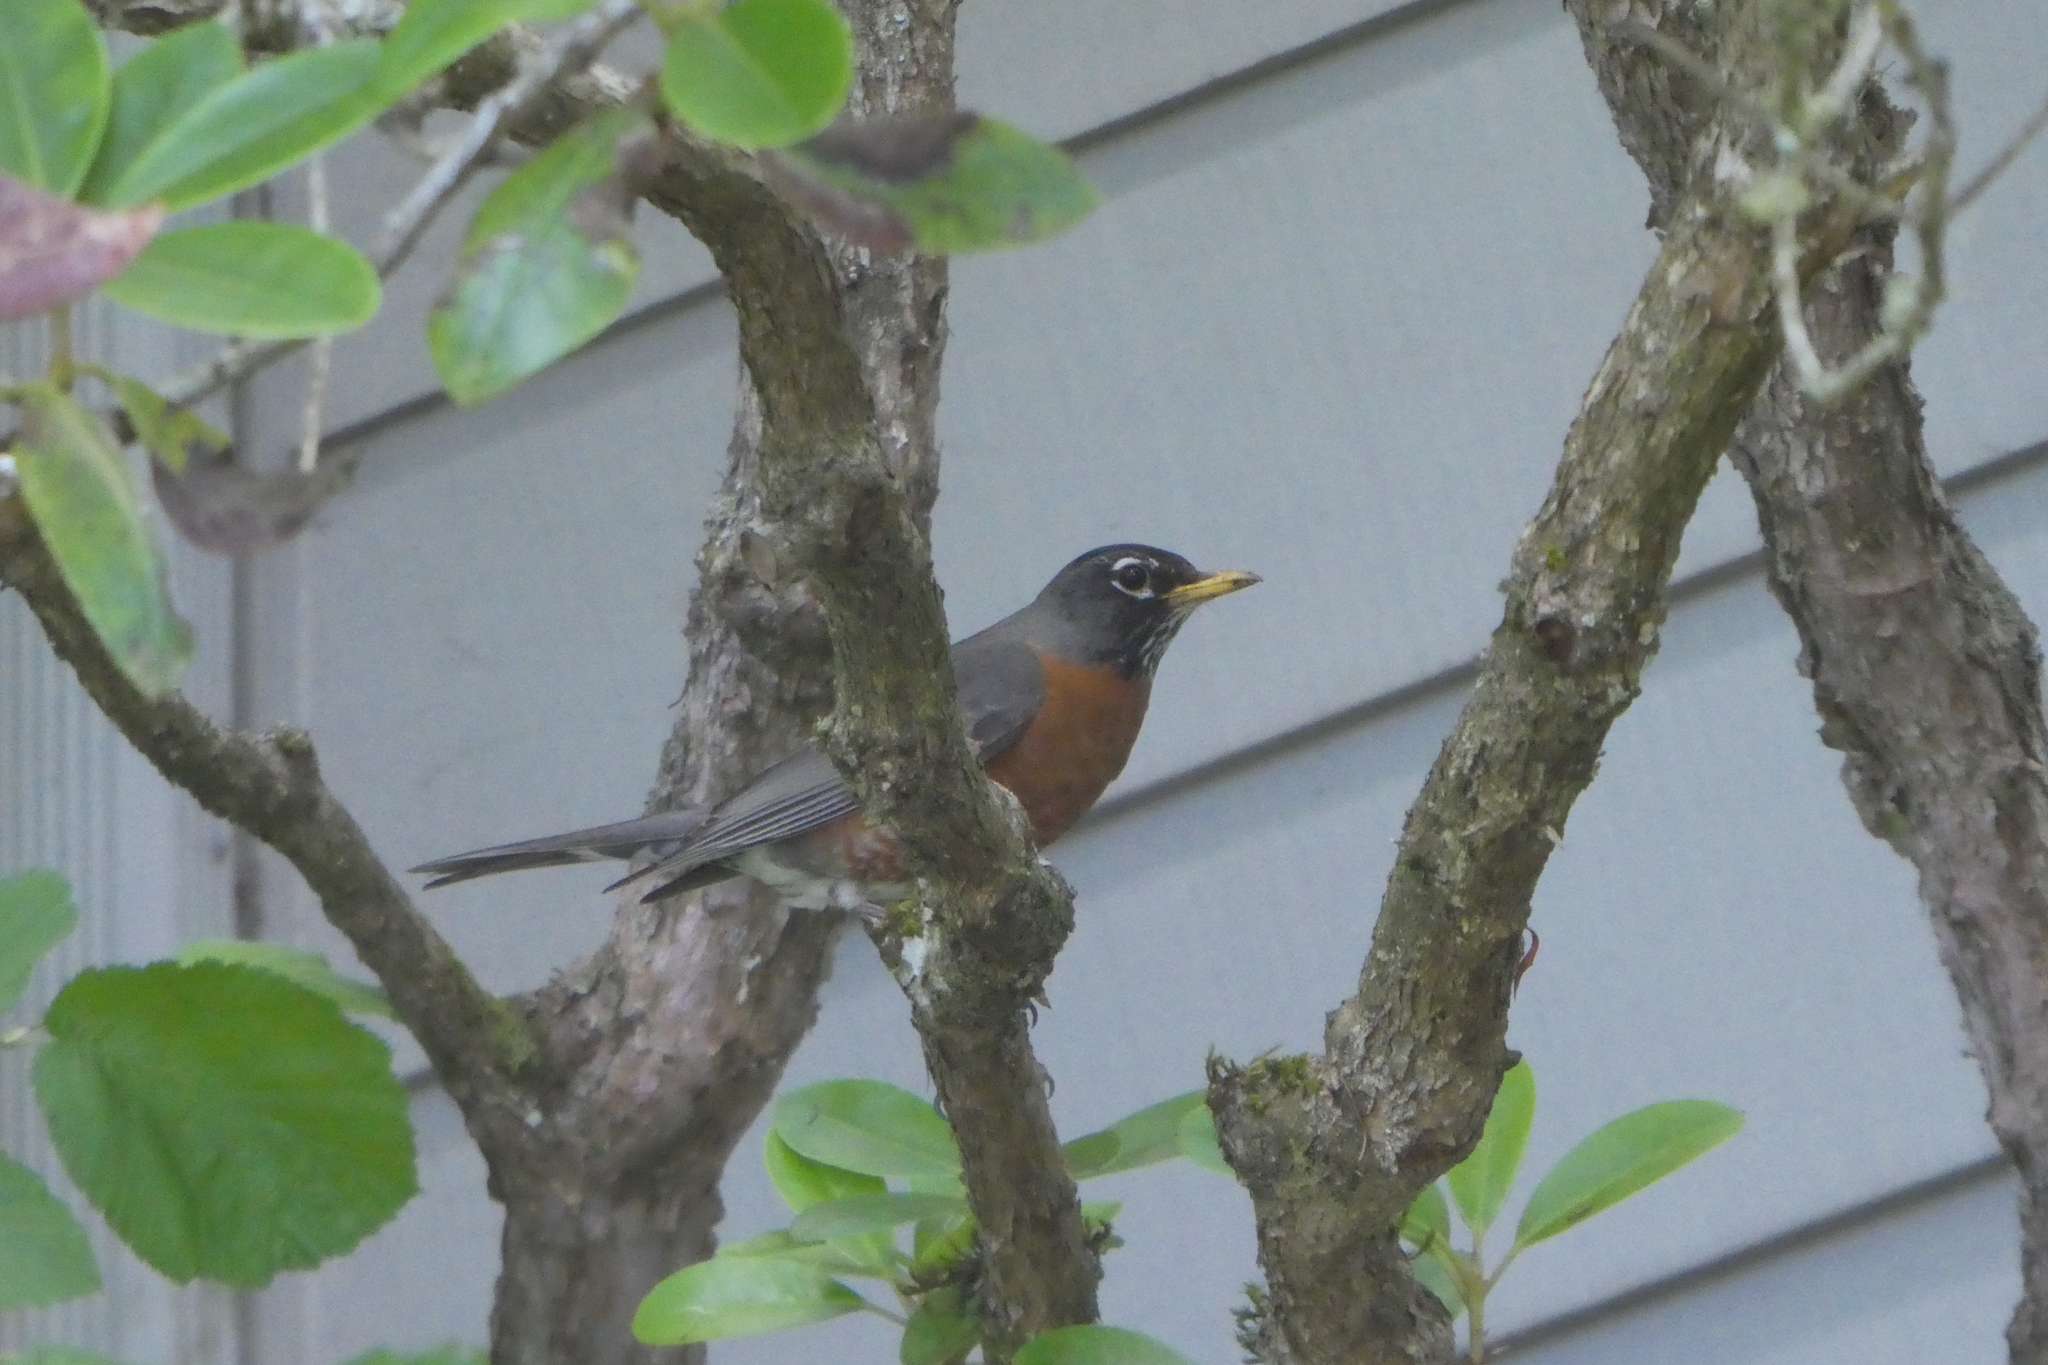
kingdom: Animalia
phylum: Chordata
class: Aves
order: Passeriformes
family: Turdidae
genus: Turdus
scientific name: Turdus migratorius
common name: American robin
